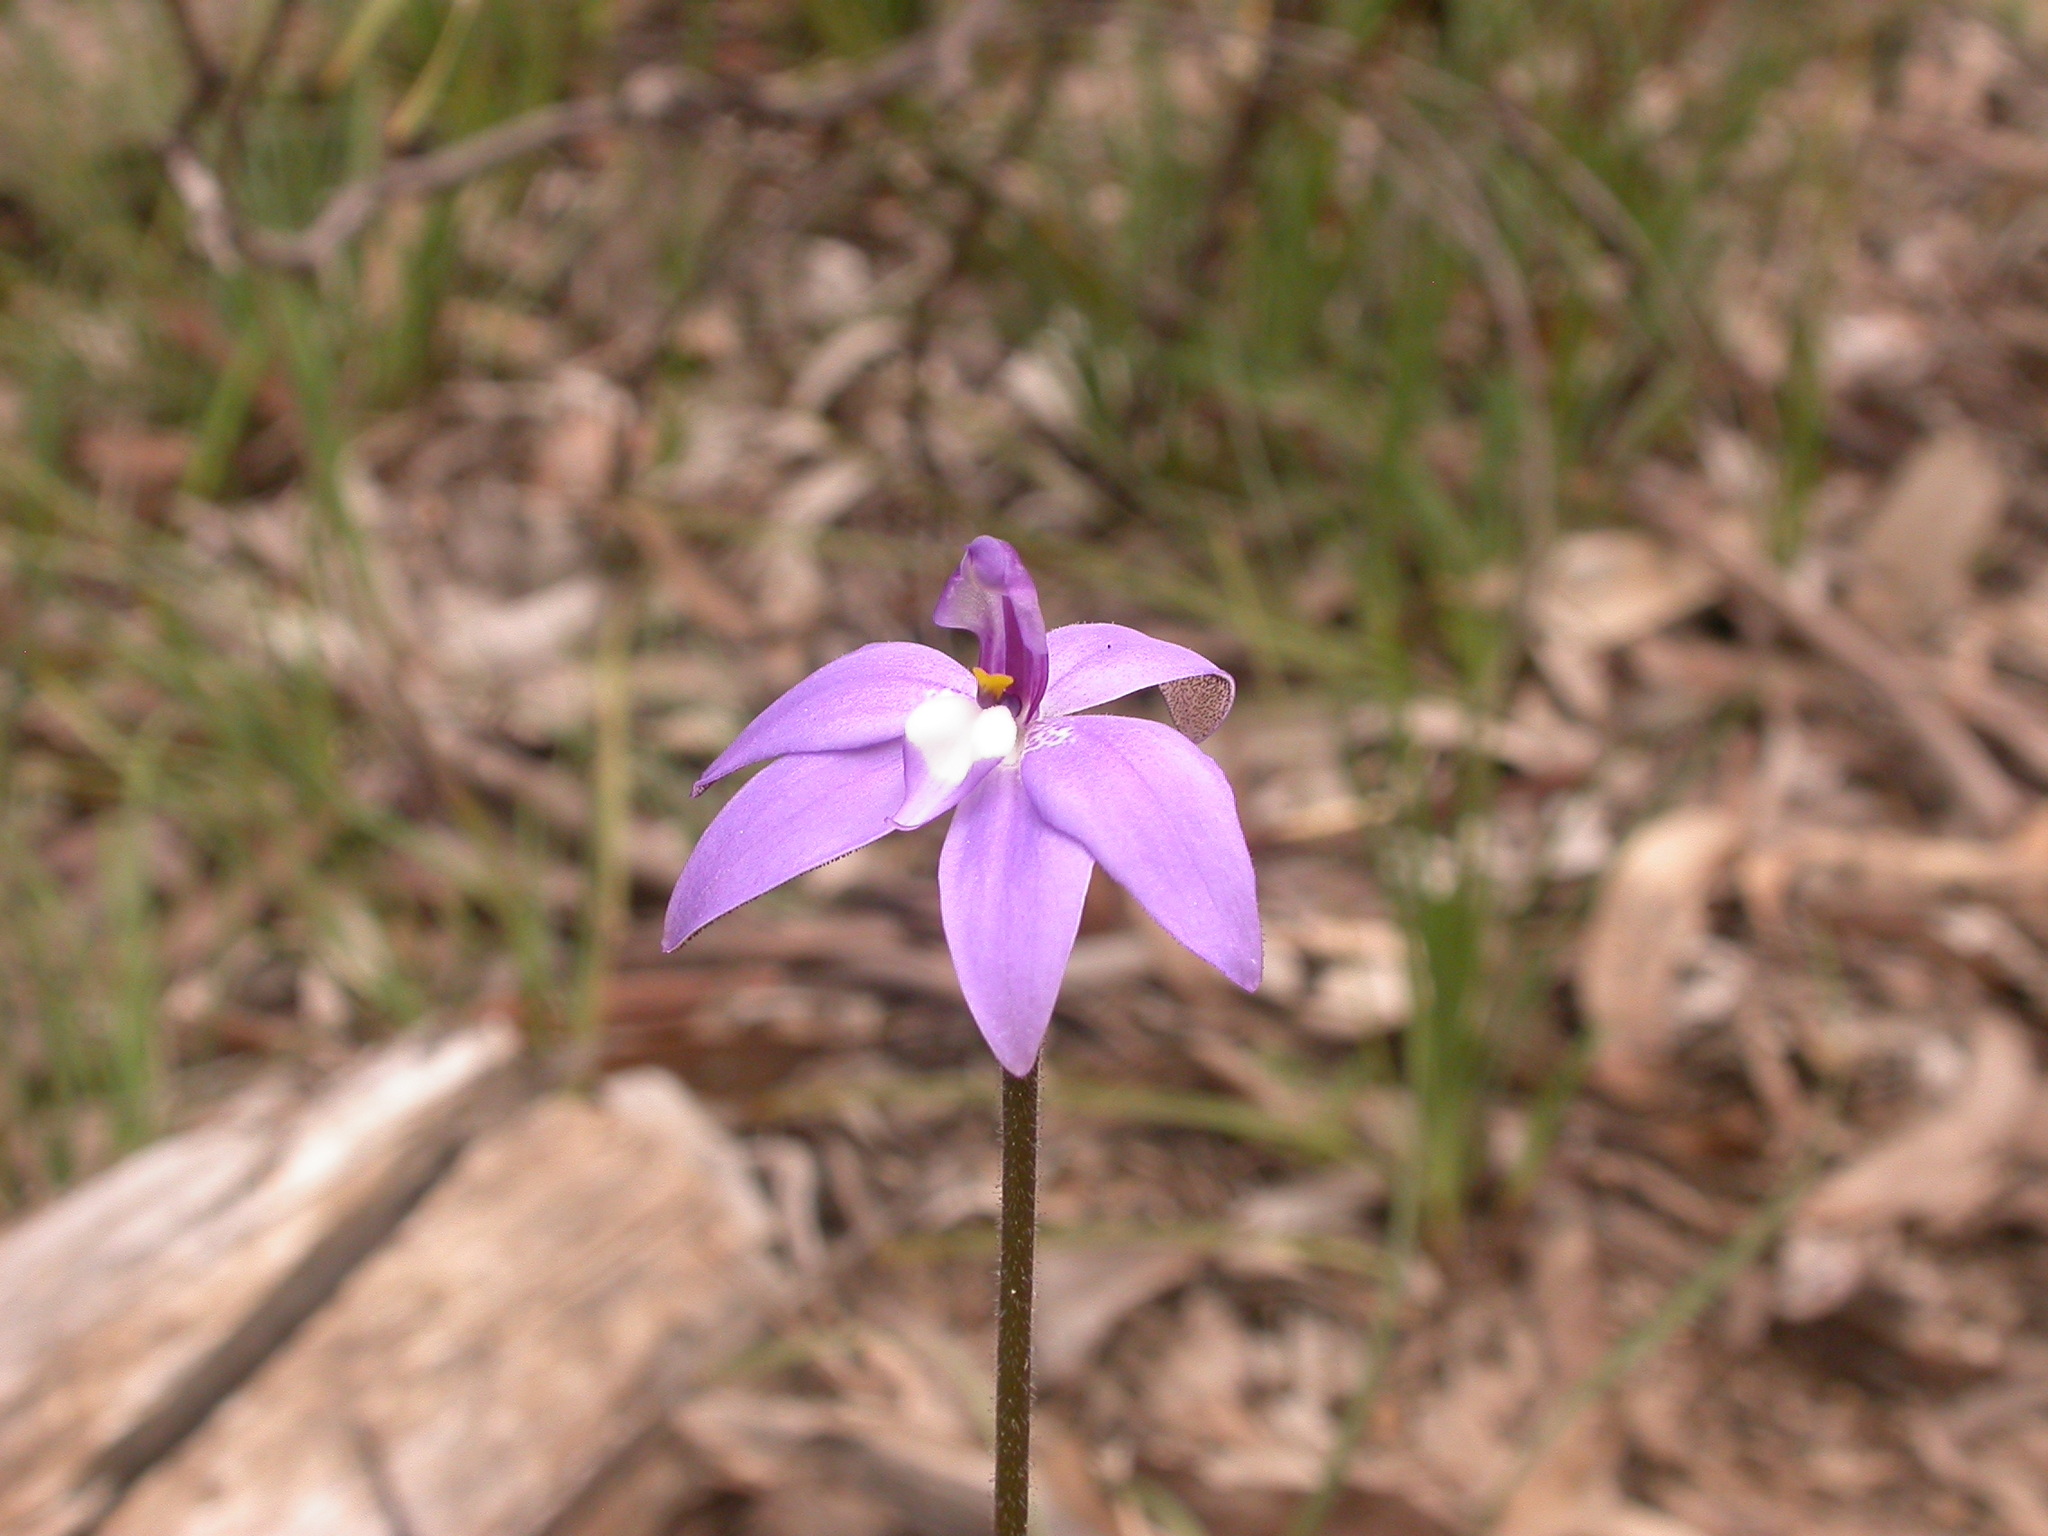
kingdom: Plantae
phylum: Tracheophyta
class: Liliopsida
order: Asparagales
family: Orchidaceae
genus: Caladenia
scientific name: Caladenia major
